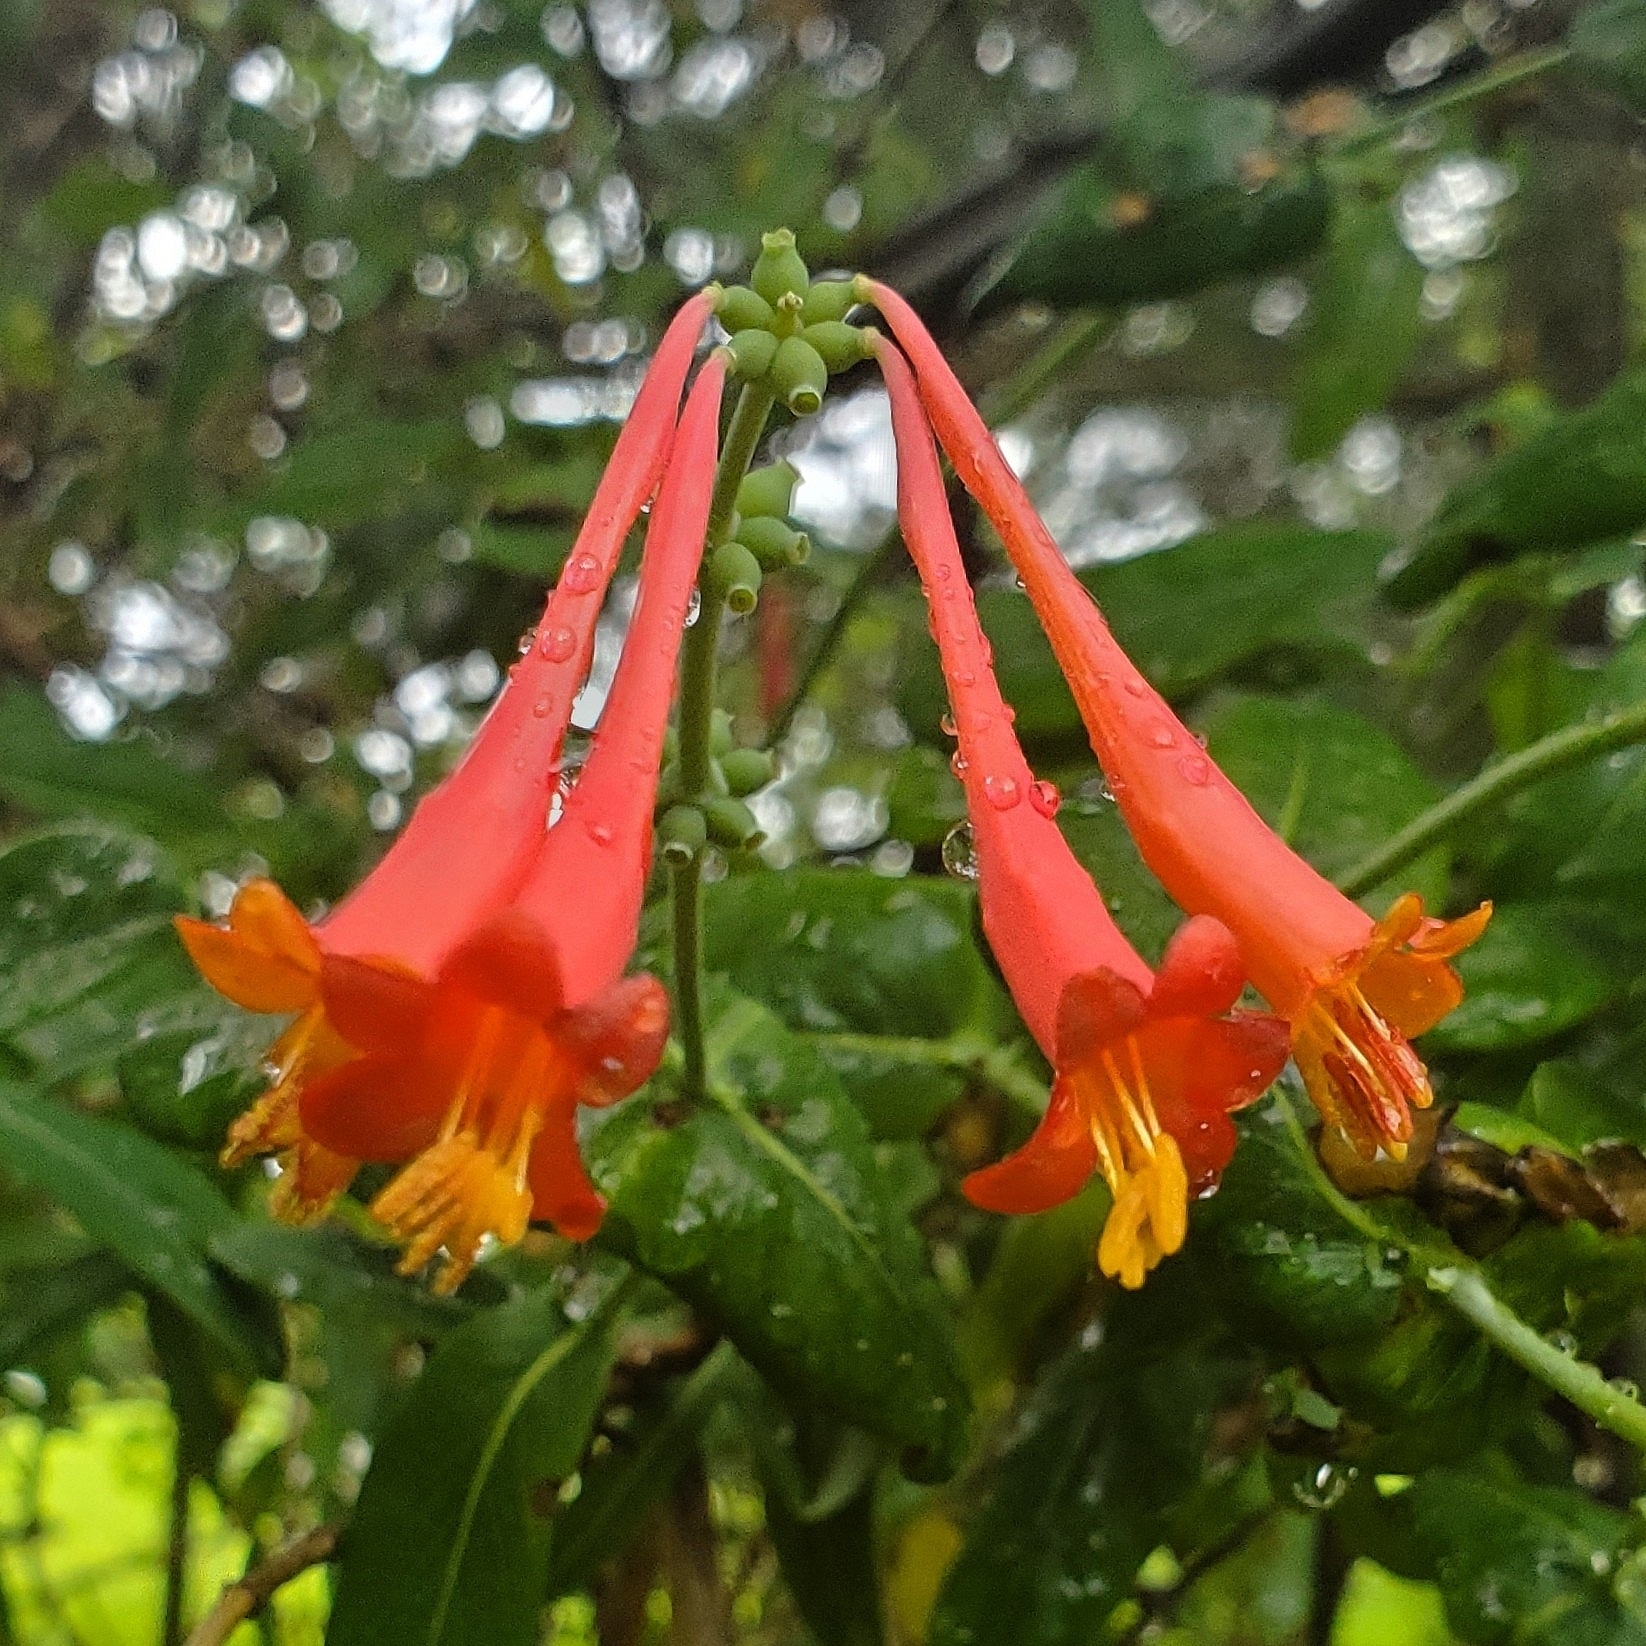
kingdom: Plantae
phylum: Tracheophyta
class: Magnoliopsida
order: Dipsacales
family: Caprifoliaceae
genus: Lonicera
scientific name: Lonicera sempervirens
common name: Coral honeysuckle
